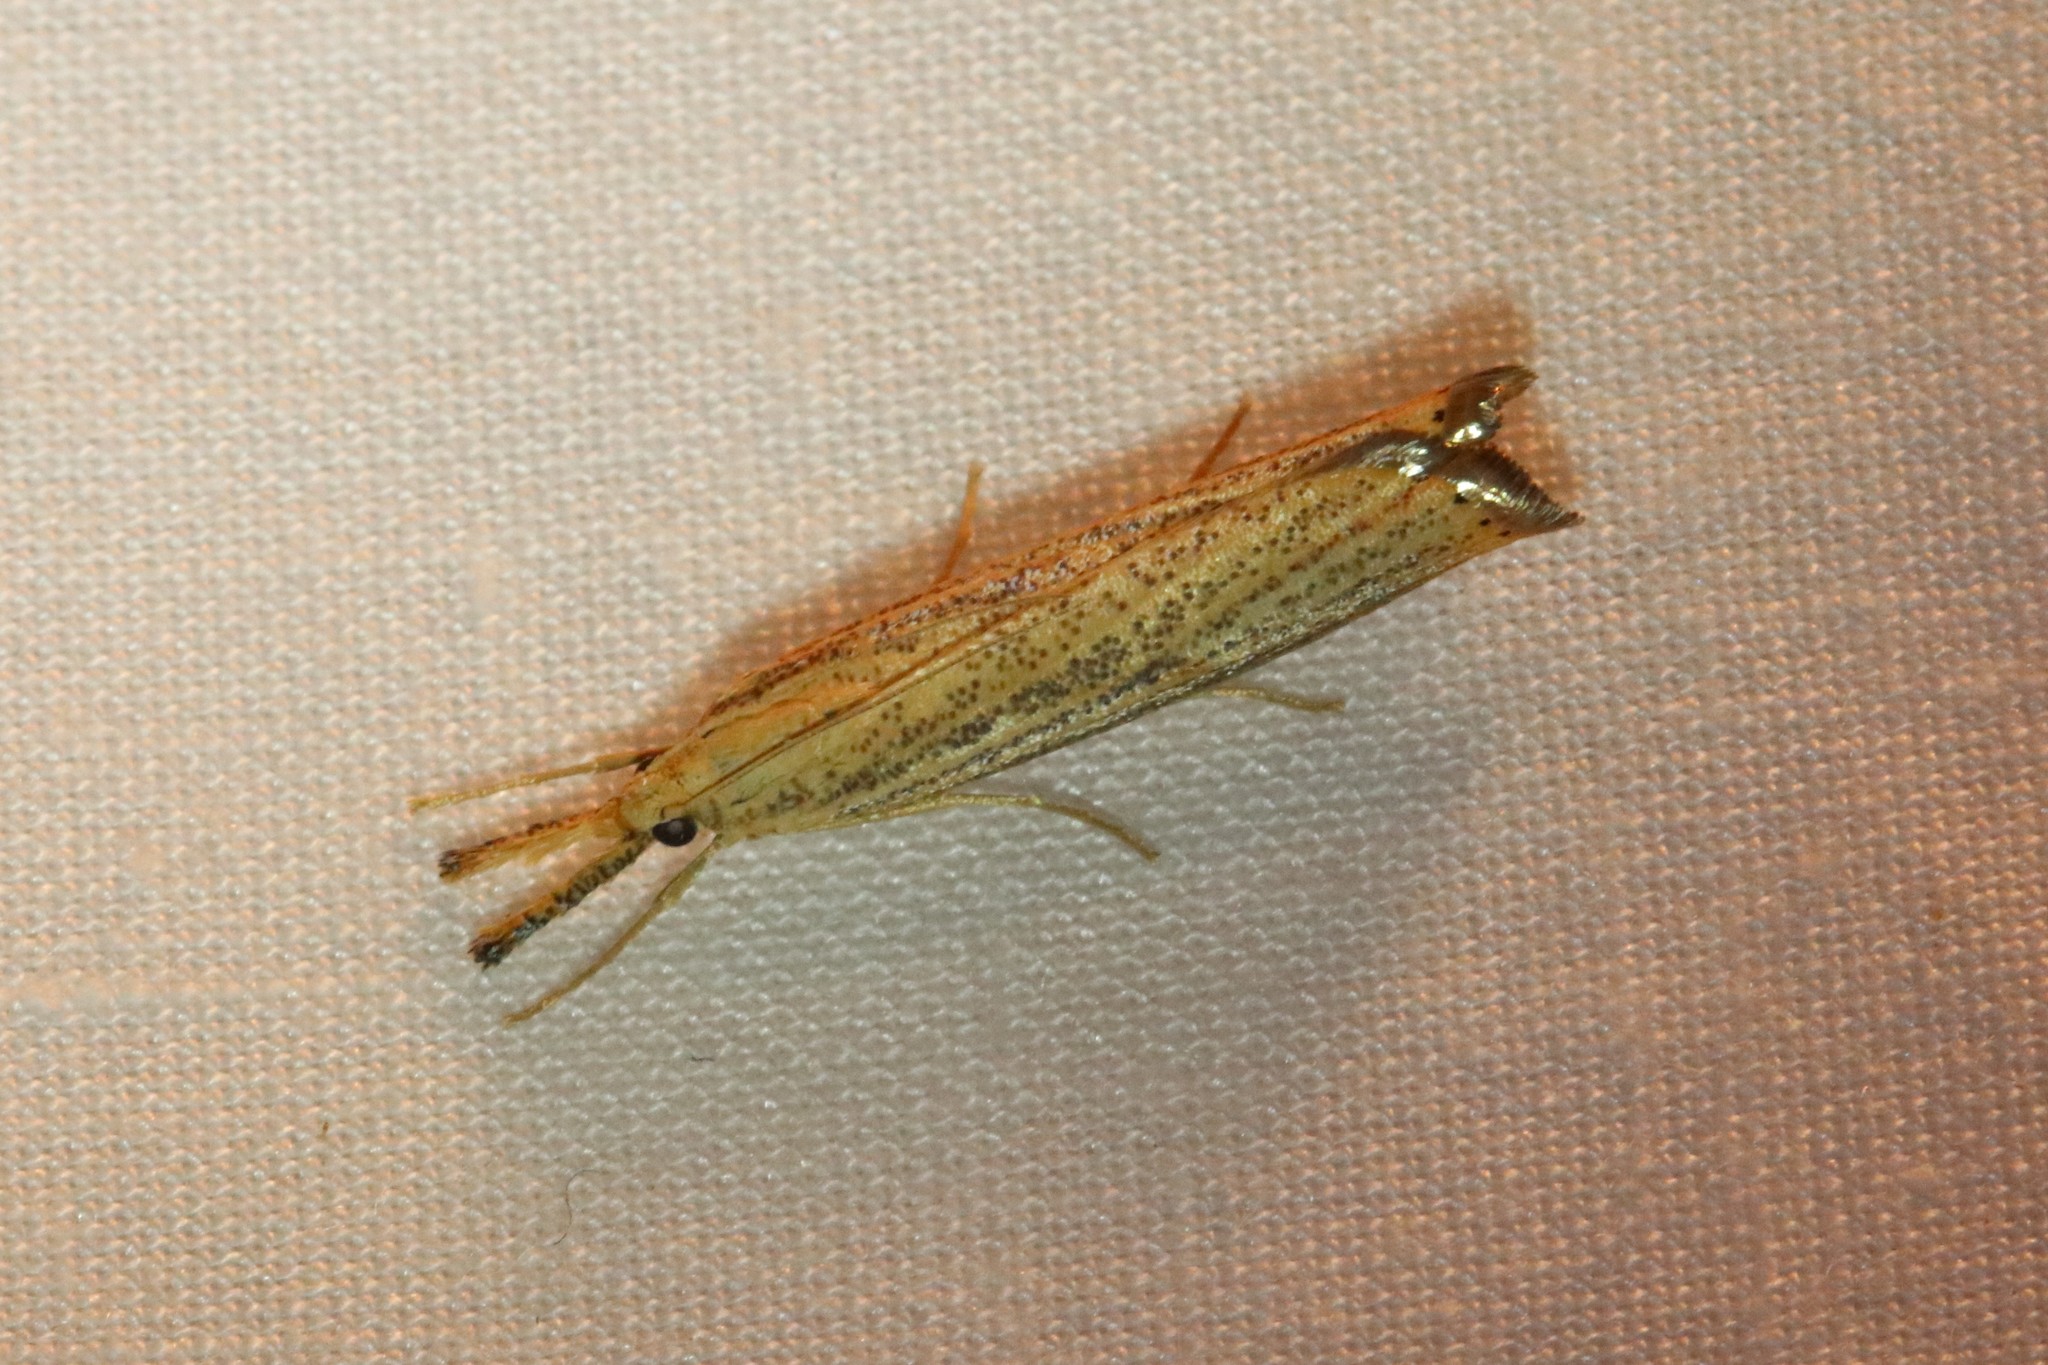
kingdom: Animalia
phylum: Arthropoda
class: Insecta
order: Lepidoptera
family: Crambidae
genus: Agriphila
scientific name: Agriphila vulgivagellus
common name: Vagabond crambus moth
